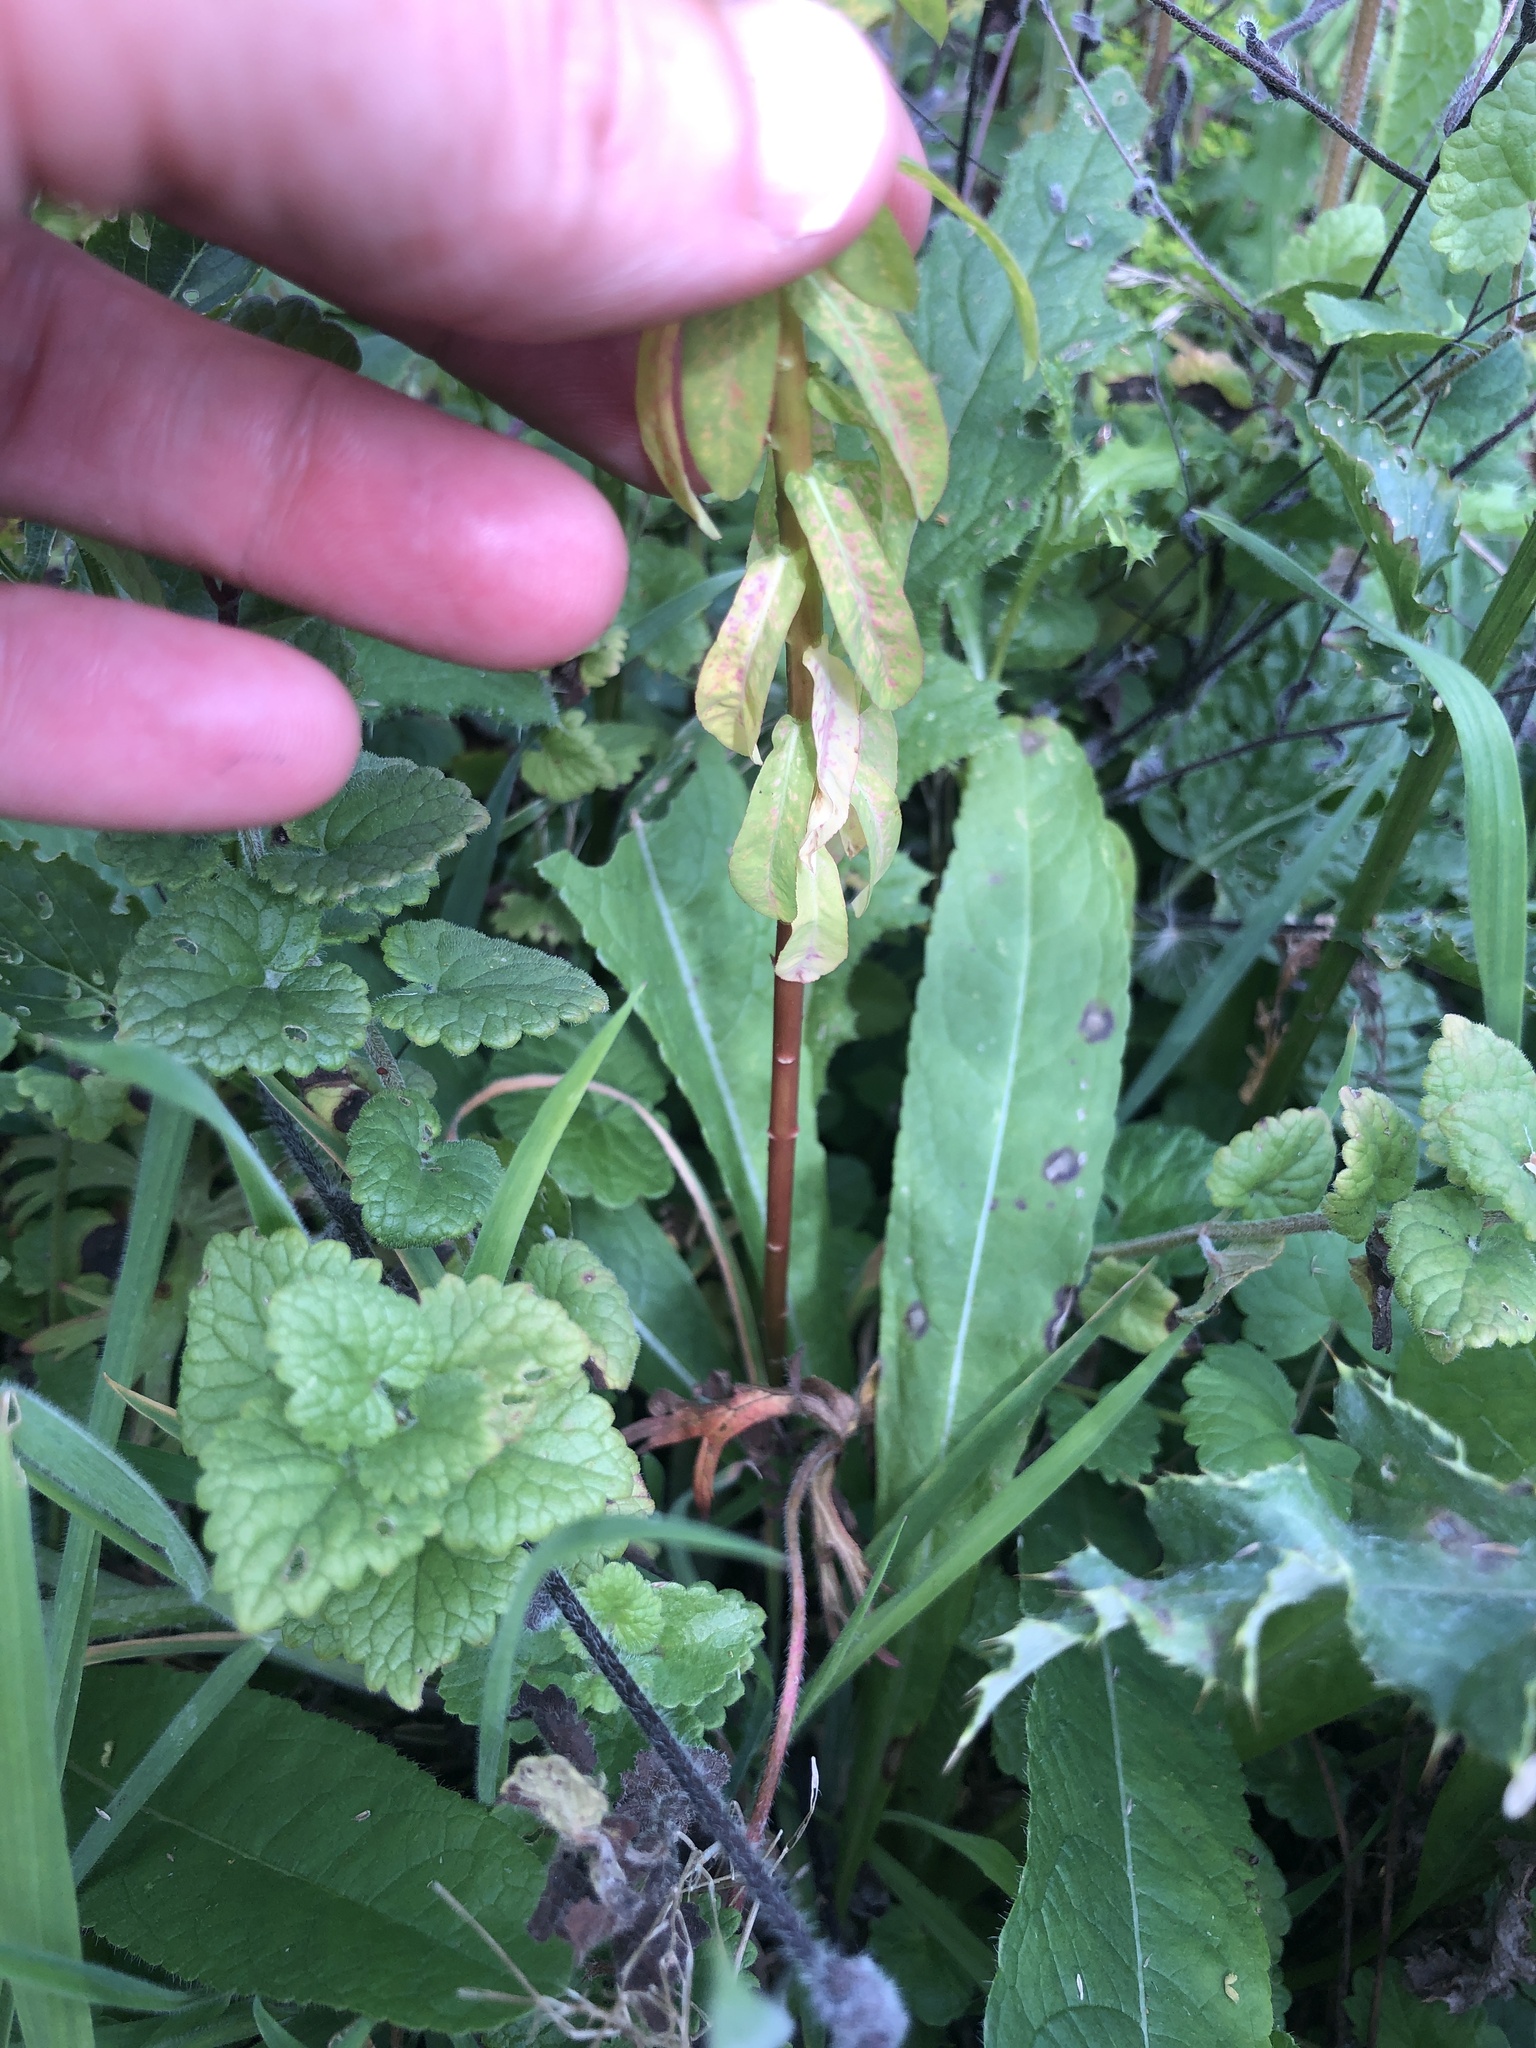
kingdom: Plantae
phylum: Tracheophyta
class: Magnoliopsida
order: Malpighiales
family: Euphorbiaceae
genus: Euphorbia
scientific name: Euphorbia stricta
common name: Upright spurge
